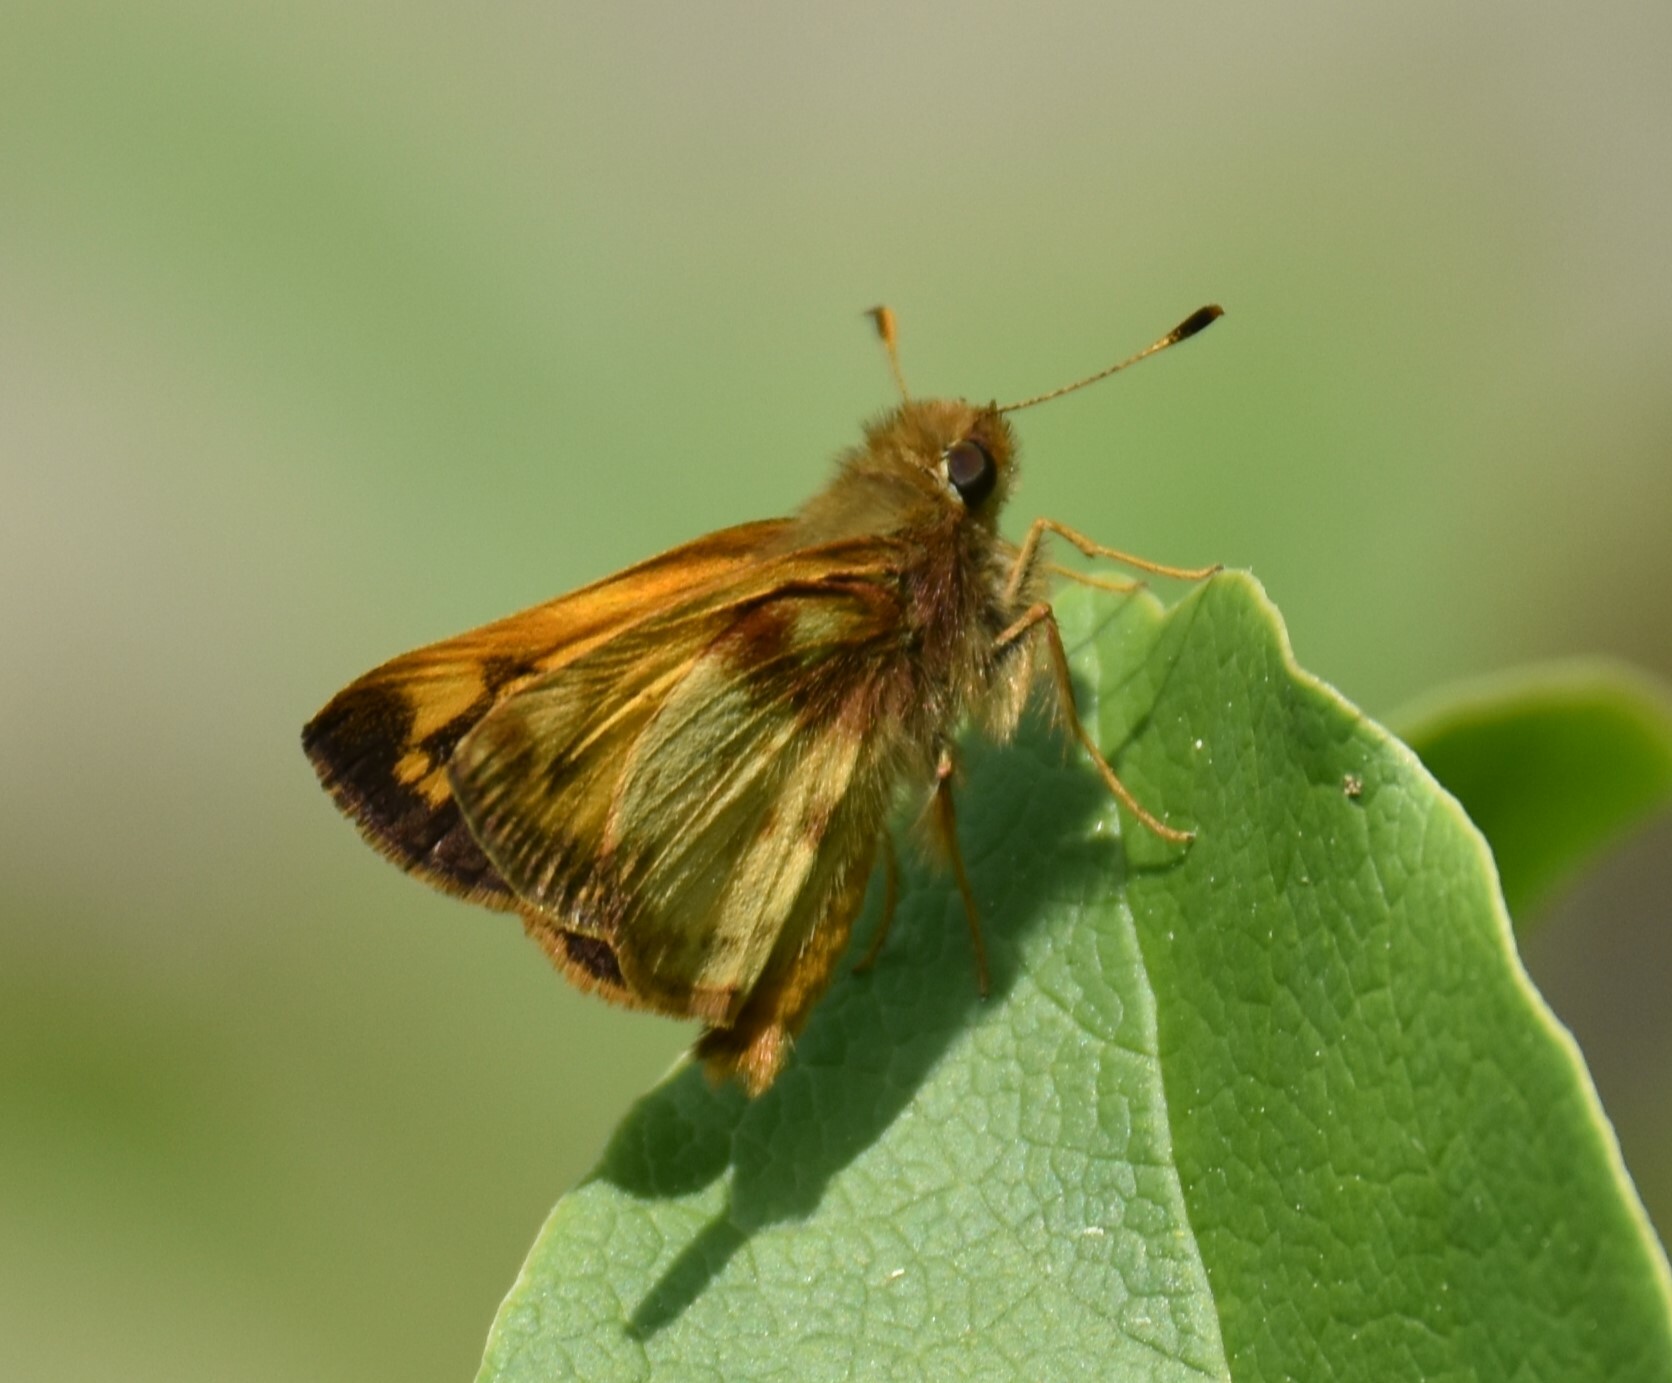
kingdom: Animalia
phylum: Arthropoda
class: Insecta
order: Lepidoptera
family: Hesperiidae
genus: Lon
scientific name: Lon zabulon
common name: Zabulon skipper
